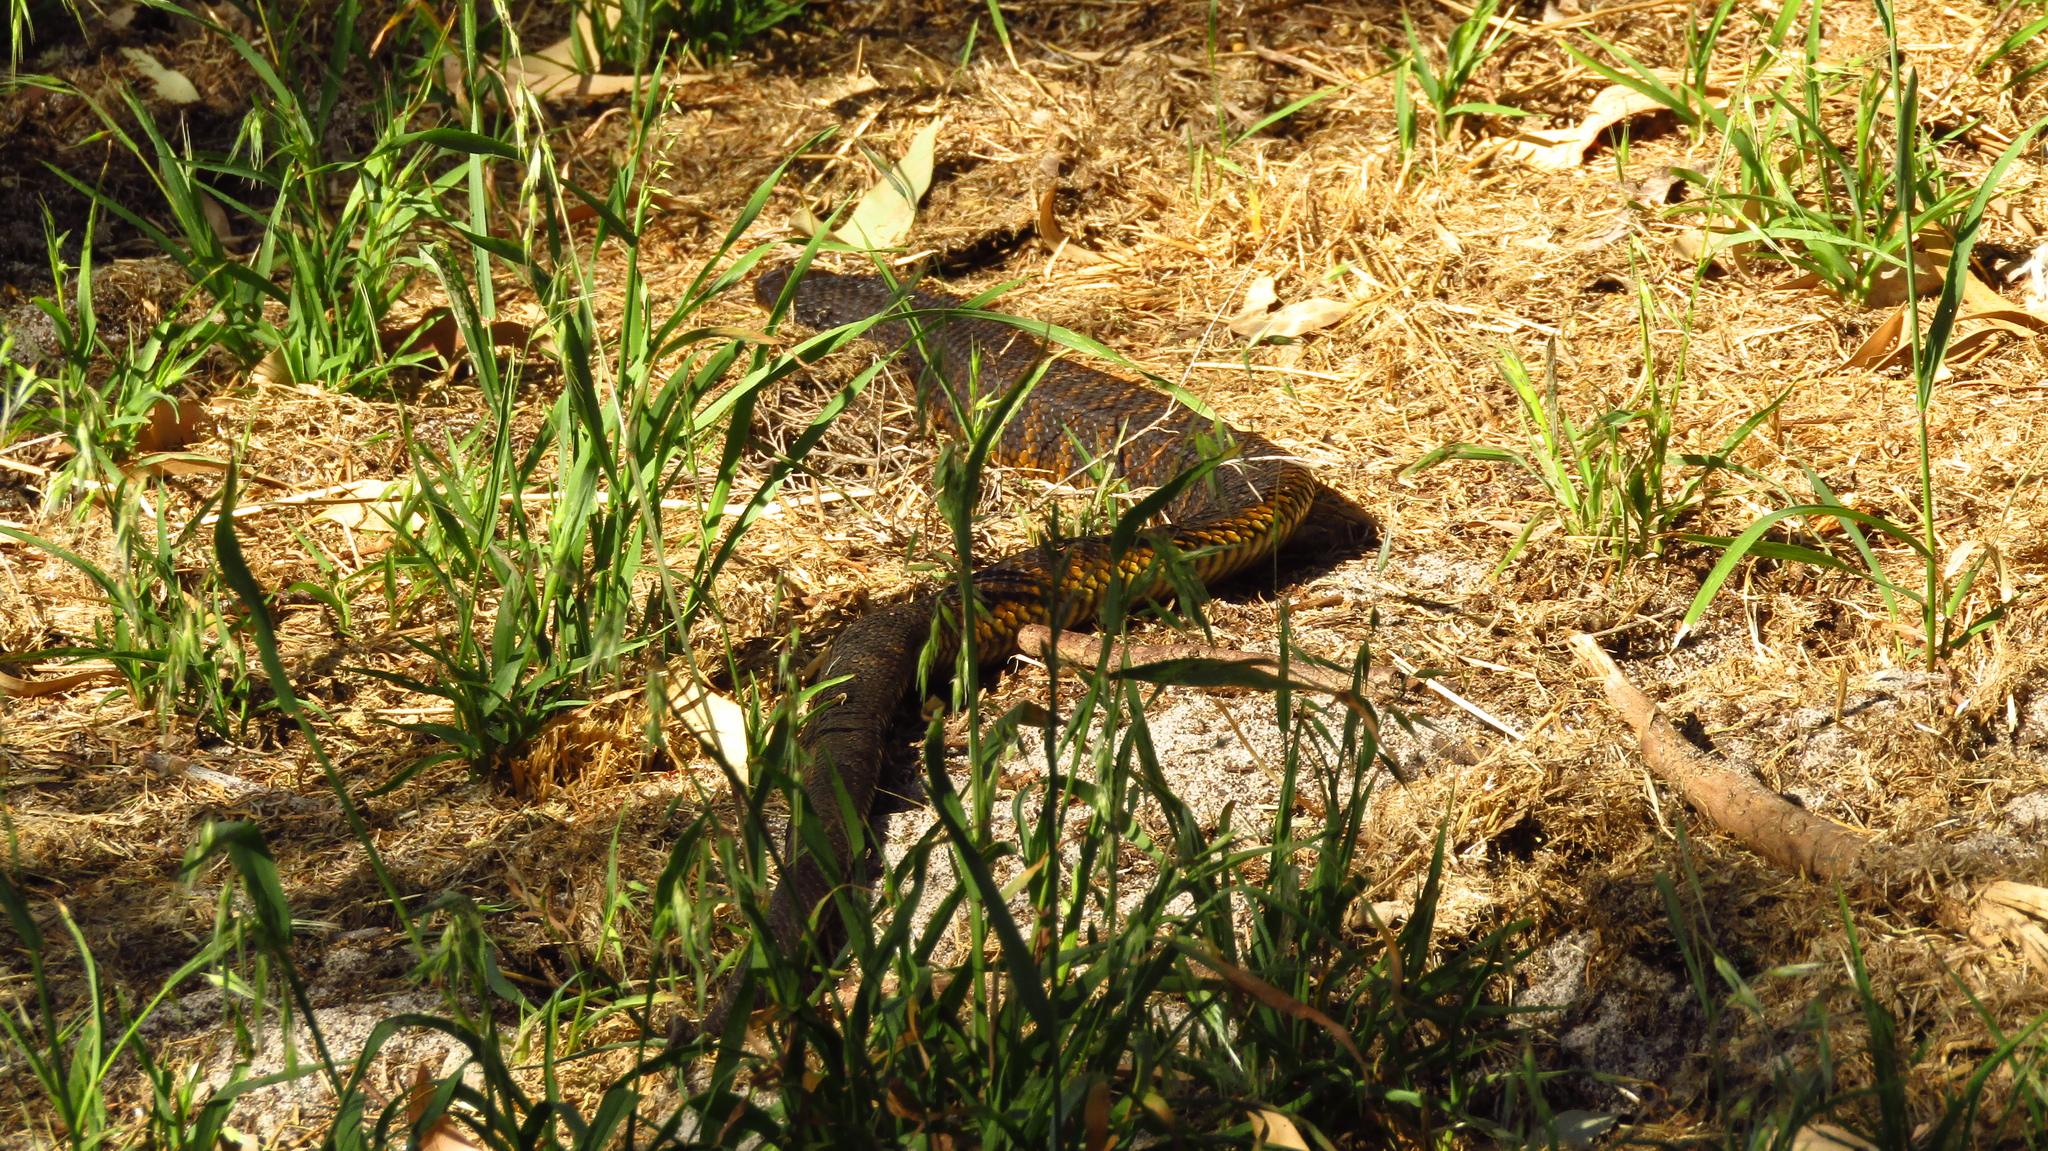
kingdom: Animalia
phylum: Chordata
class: Squamata
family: Elapidae
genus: Notechis
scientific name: Notechis scutatus
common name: Mainland tiger snake
